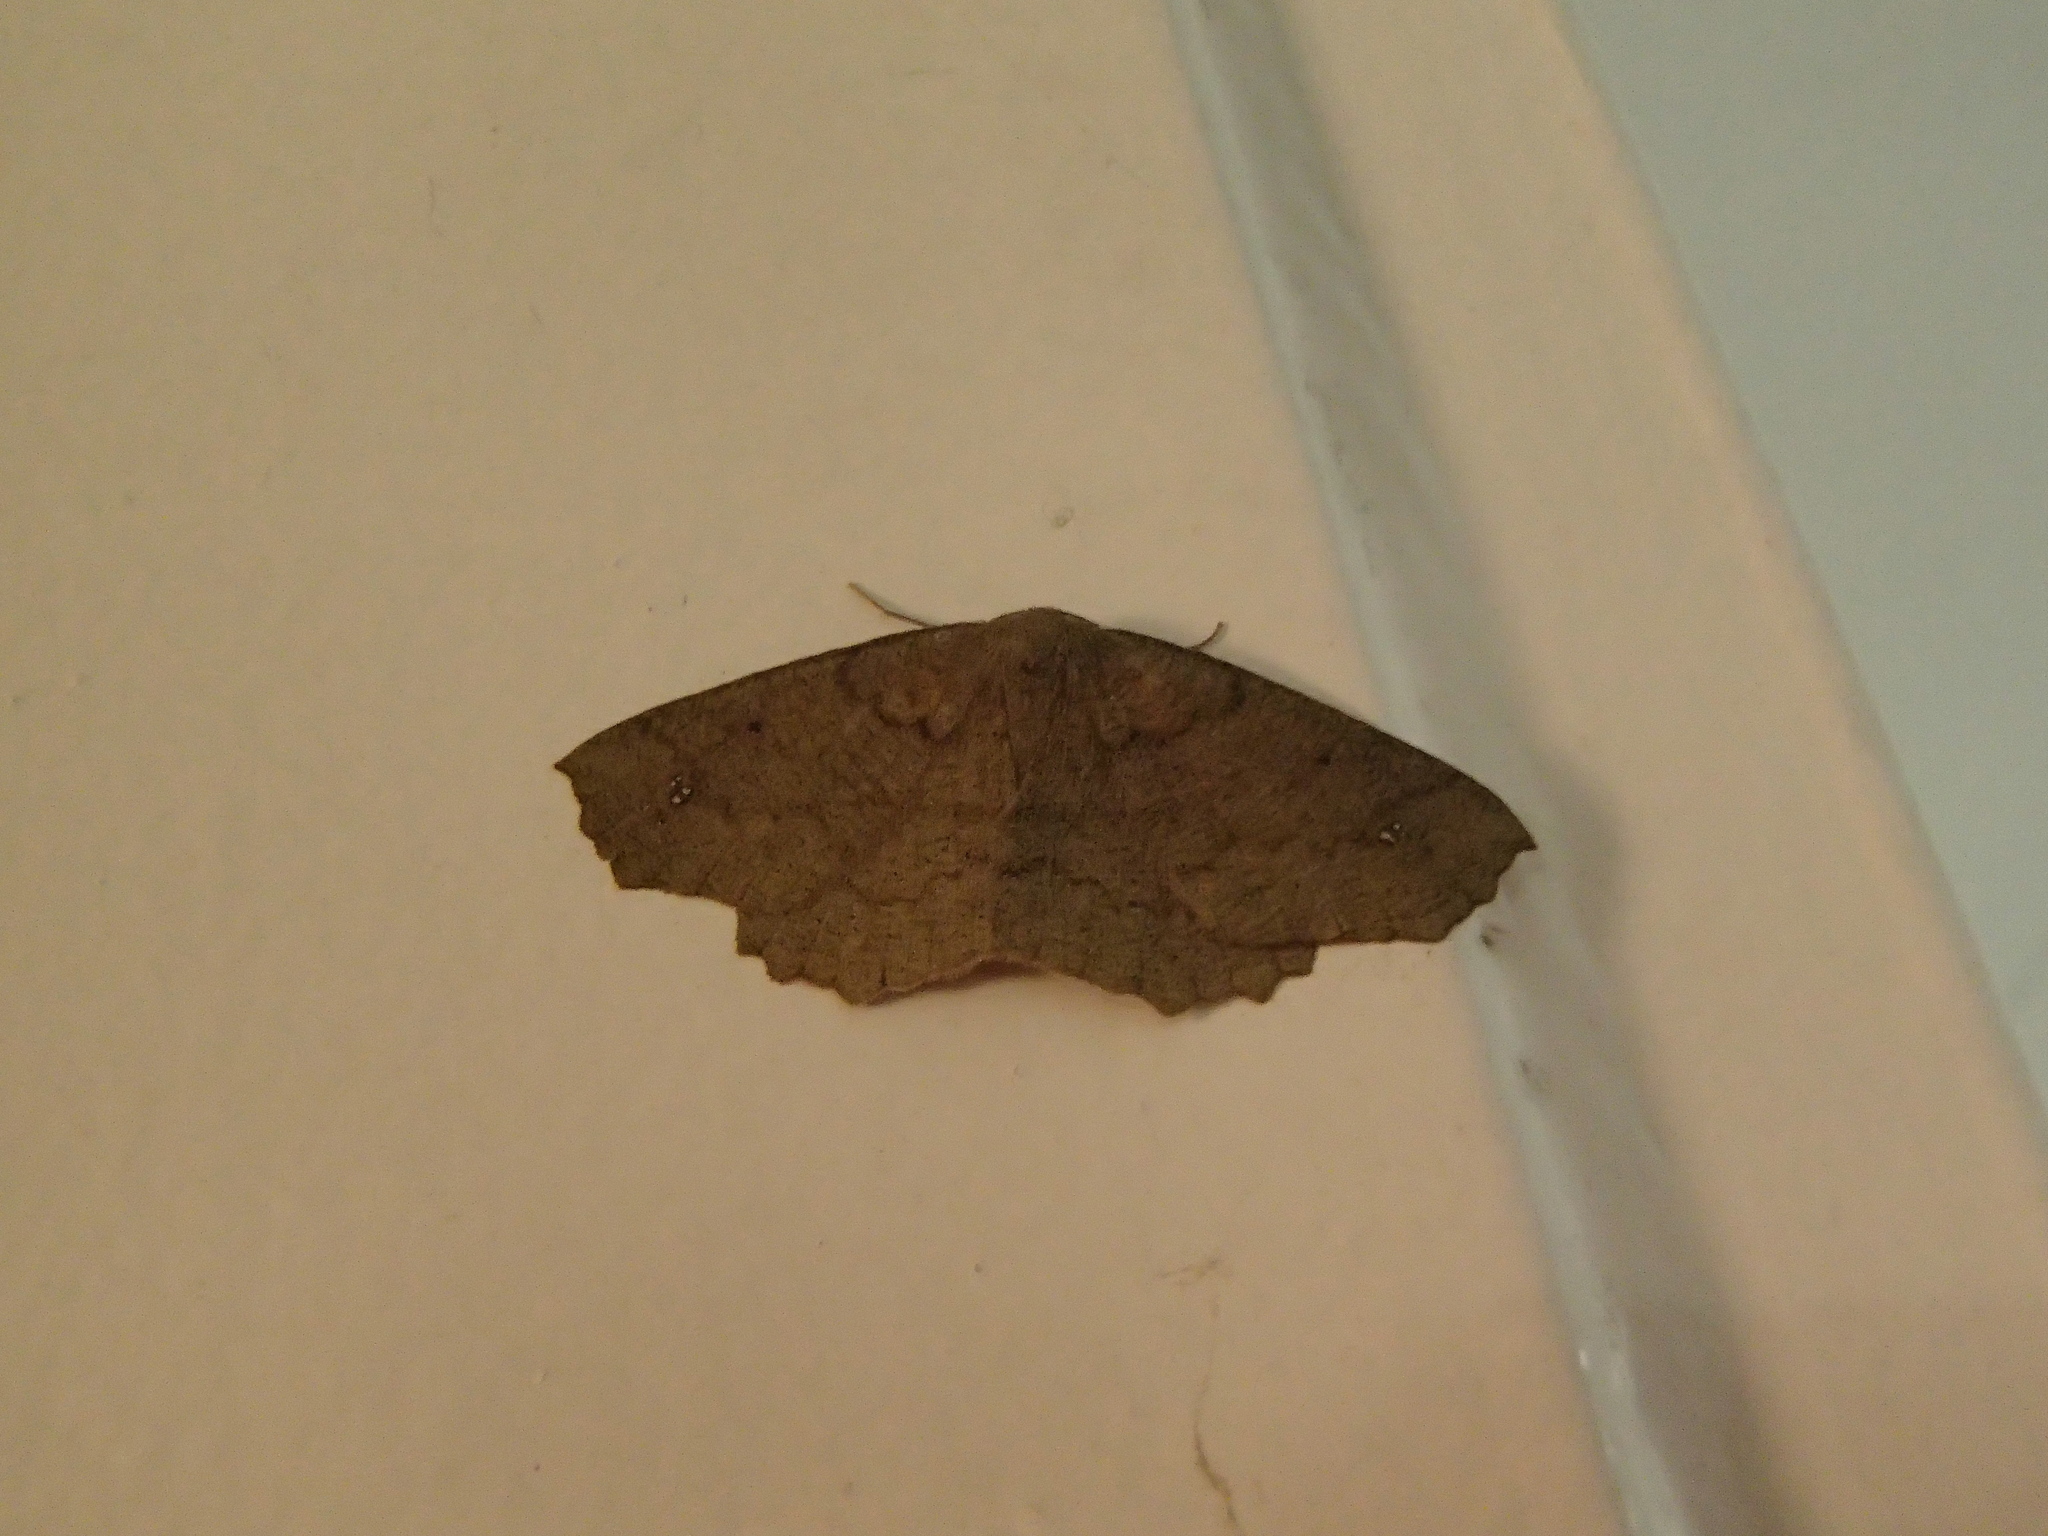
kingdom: Animalia
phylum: Arthropoda
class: Insecta
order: Lepidoptera
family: Geometridae
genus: Xyridacma
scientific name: Xyridacma ustaria
